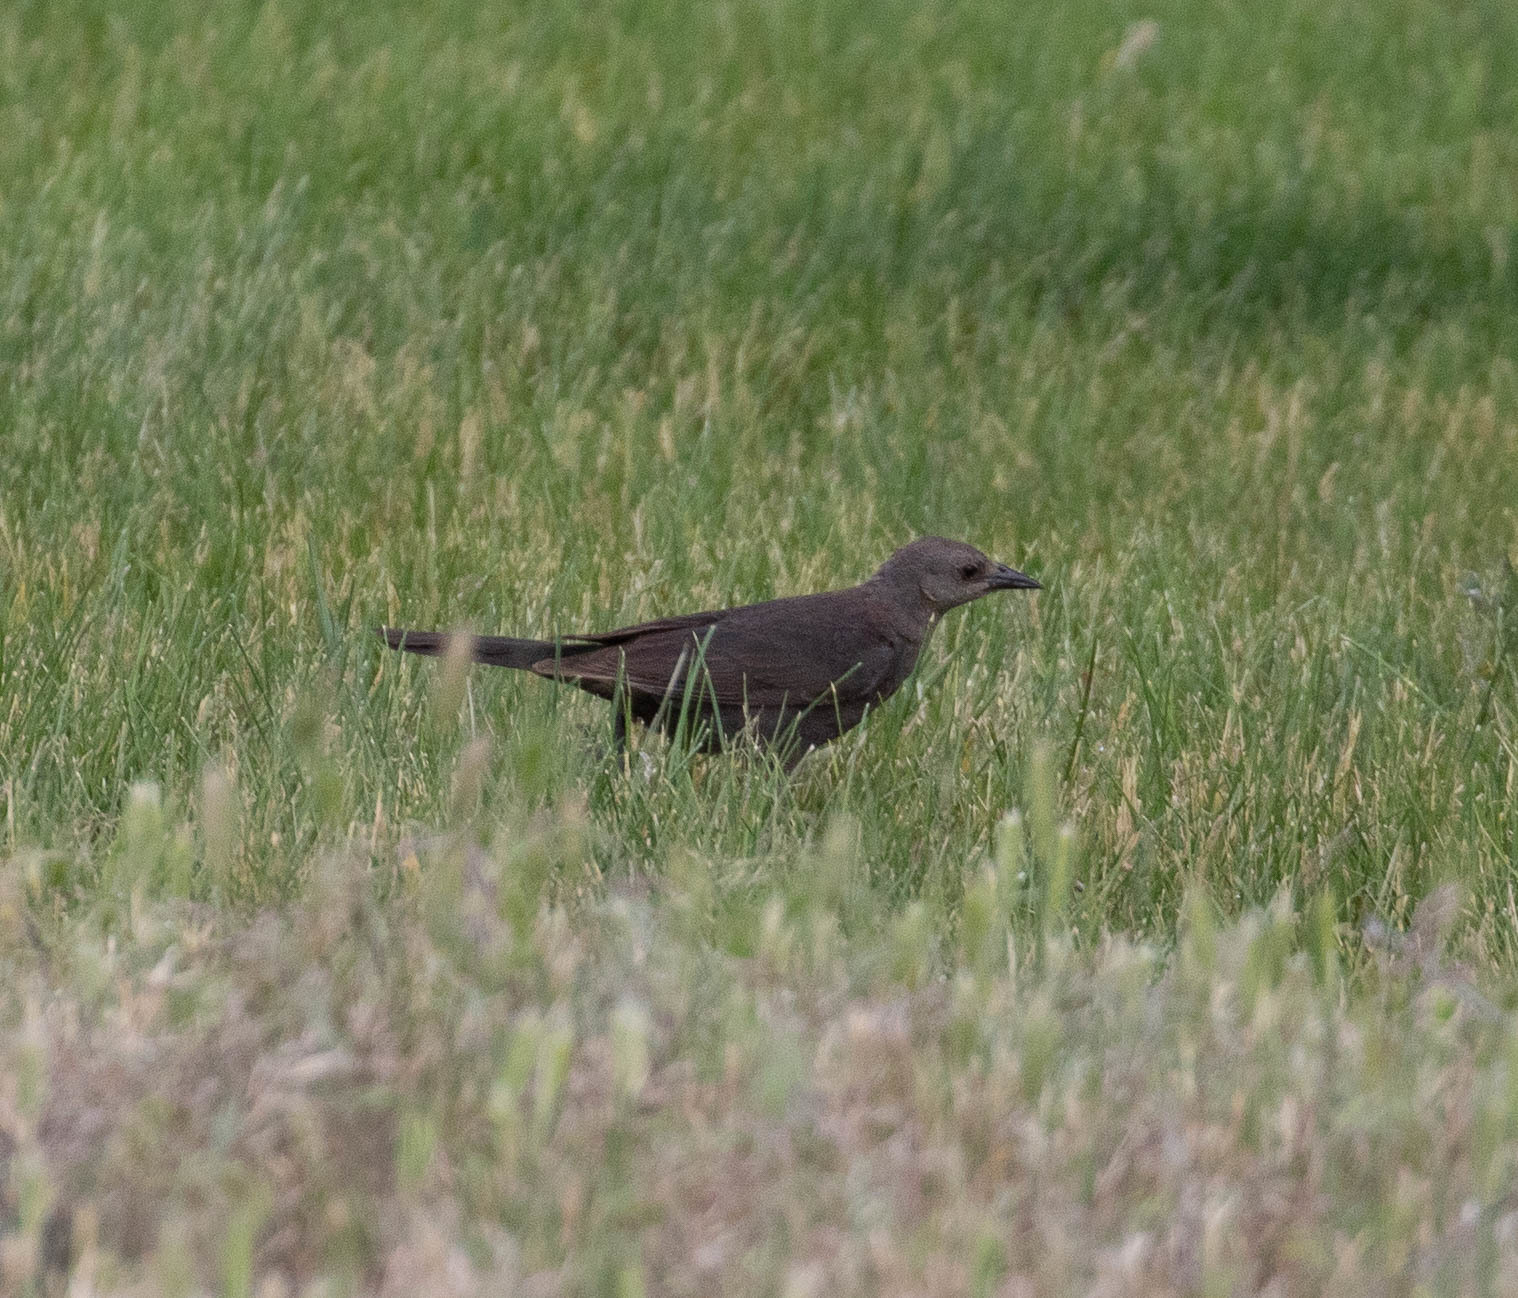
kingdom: Animalia
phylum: Chordata
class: Aves
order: Passeriformes
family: Icteridae
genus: Euphagus
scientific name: Euphagus cyanocephalus
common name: Brewer's blackbird
